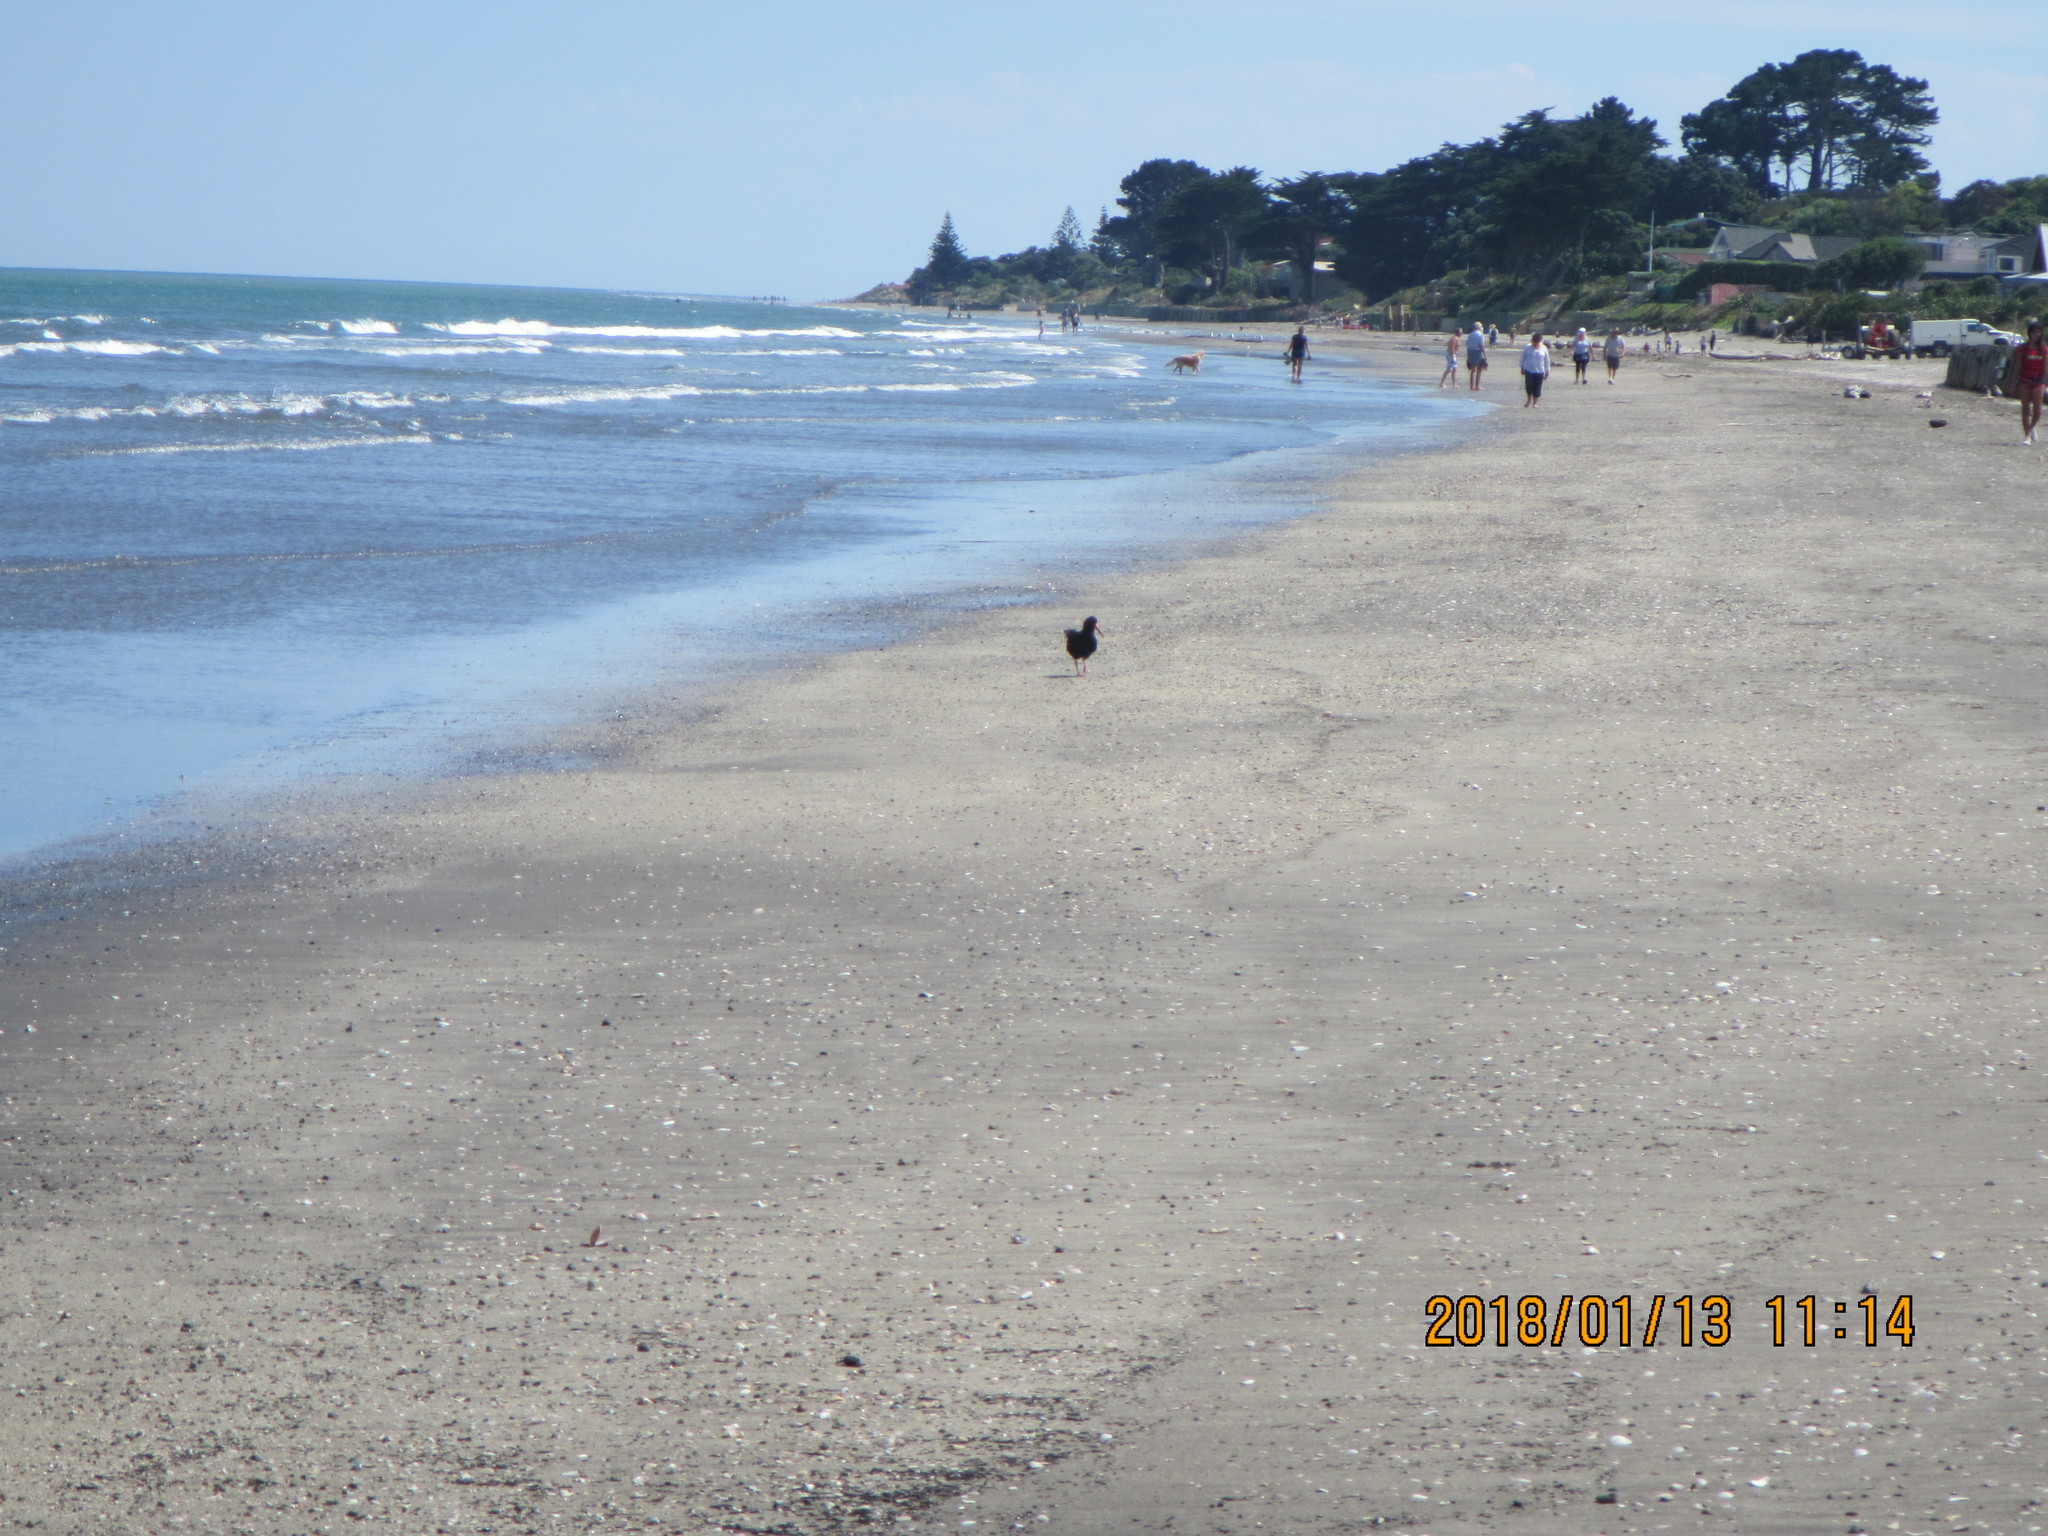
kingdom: Animalia
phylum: Chordata
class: Aves
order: Charadriiformes
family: Haematopodidae
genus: Haematopus
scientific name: Haematopus unicolor
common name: Variable oystercatcher
